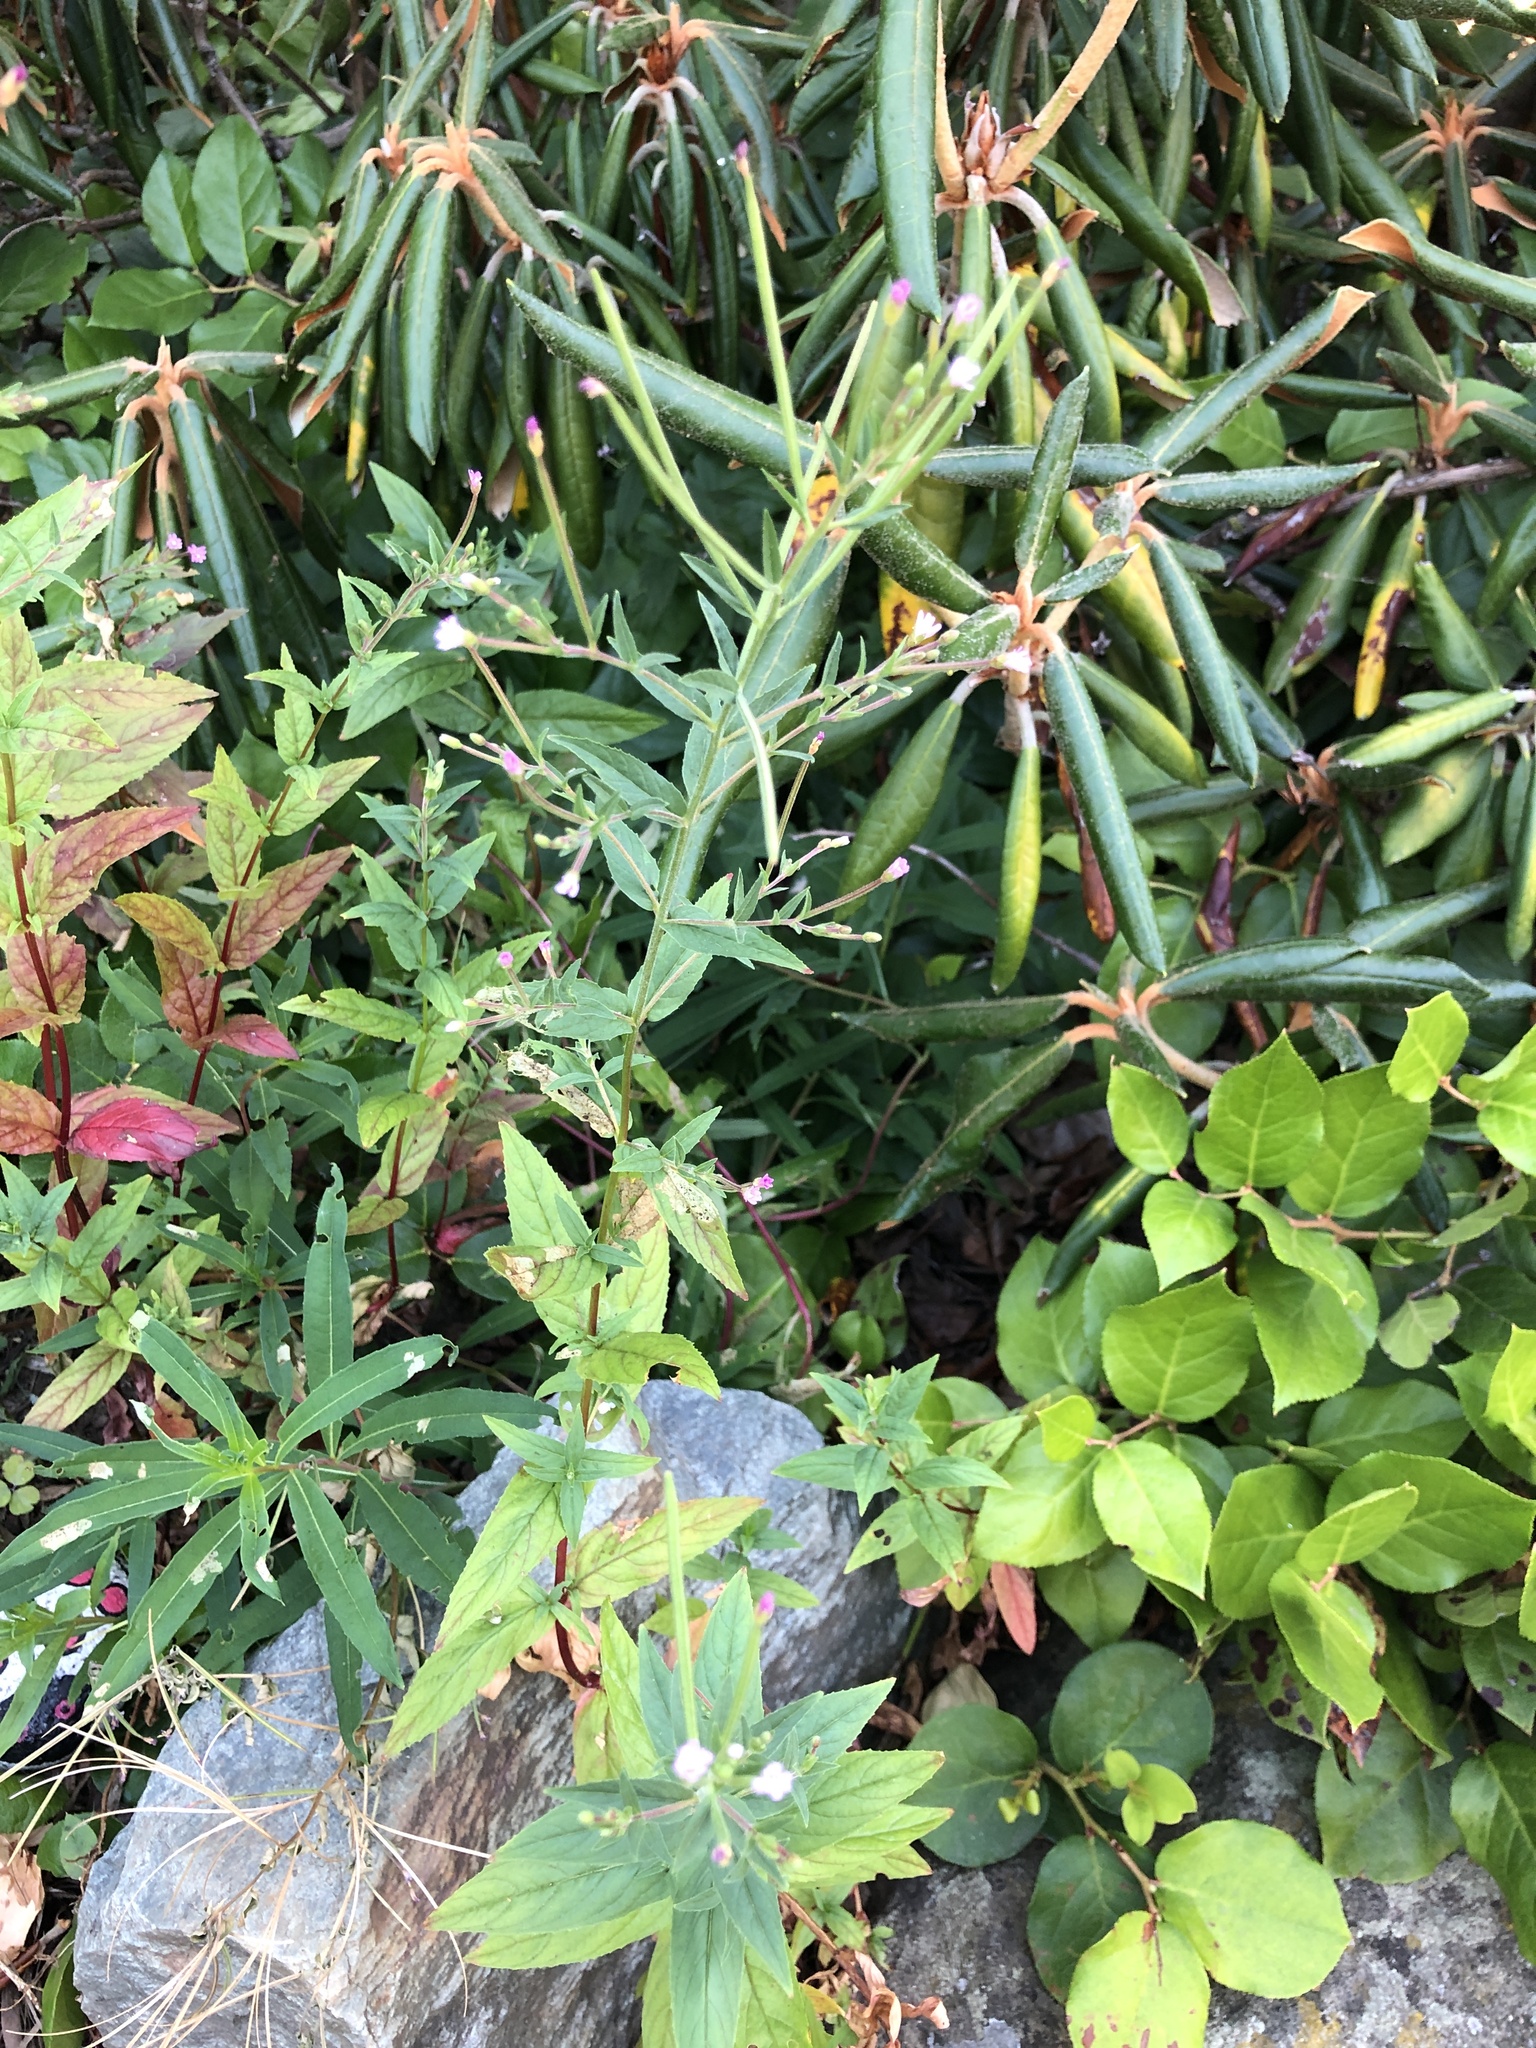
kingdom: Plantae
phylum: Tracheophyta
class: Magnoliopsida
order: Myrtales
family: Onagraceae
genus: Epilobium
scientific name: Epilobium ciliatum
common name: American willowherb
